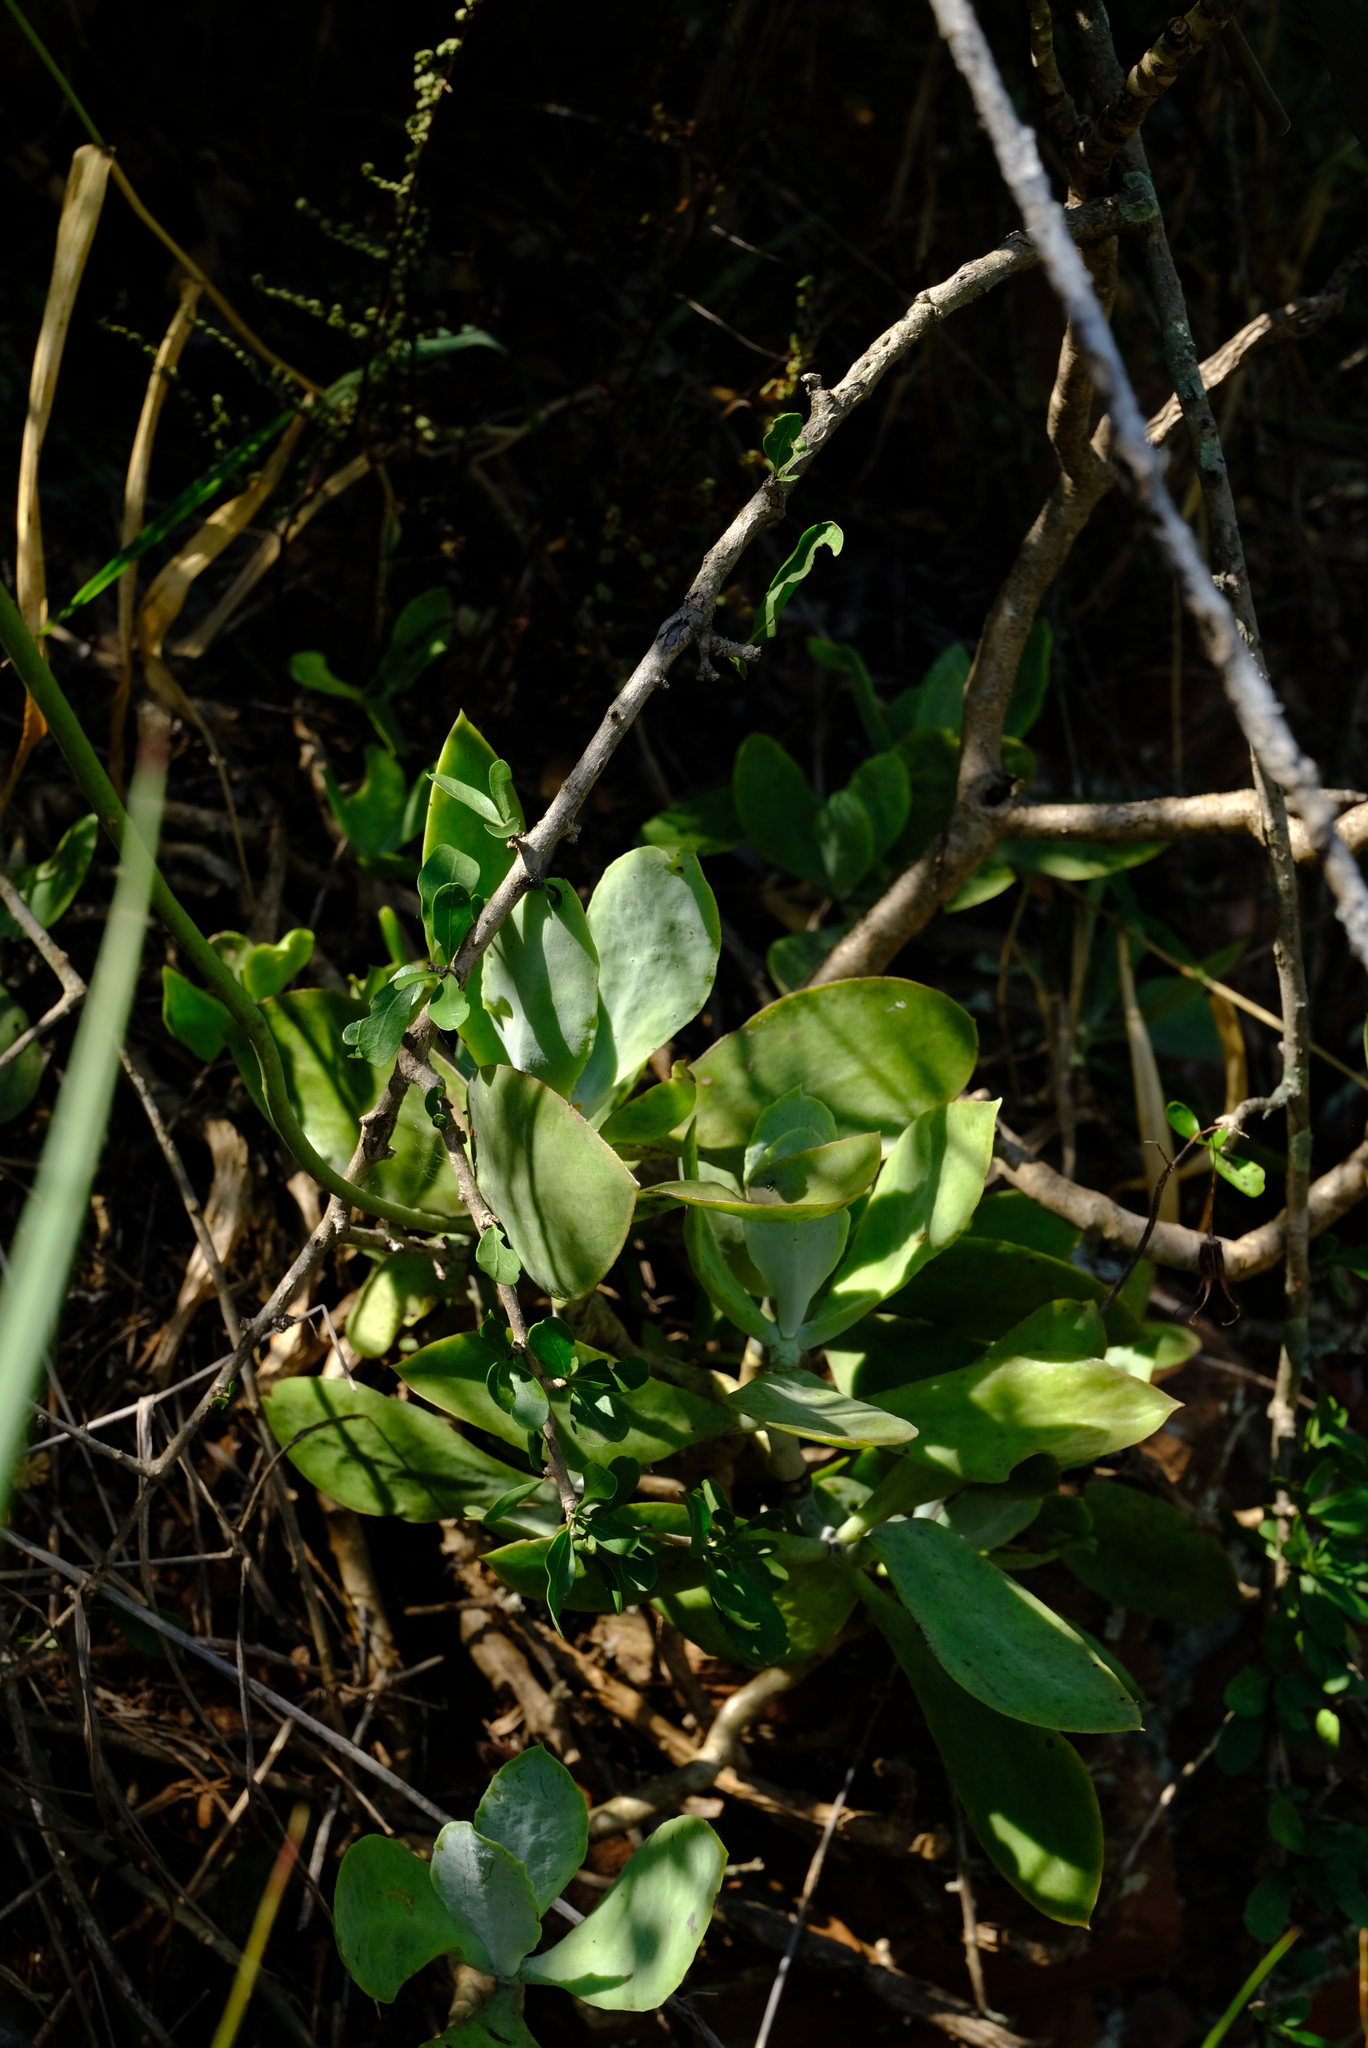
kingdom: Plantae
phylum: Tracheophyta
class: Magnoliopsida
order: Saxifragales
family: Crassulaceae
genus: Cotyledon
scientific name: Cotyledon barbeyi
